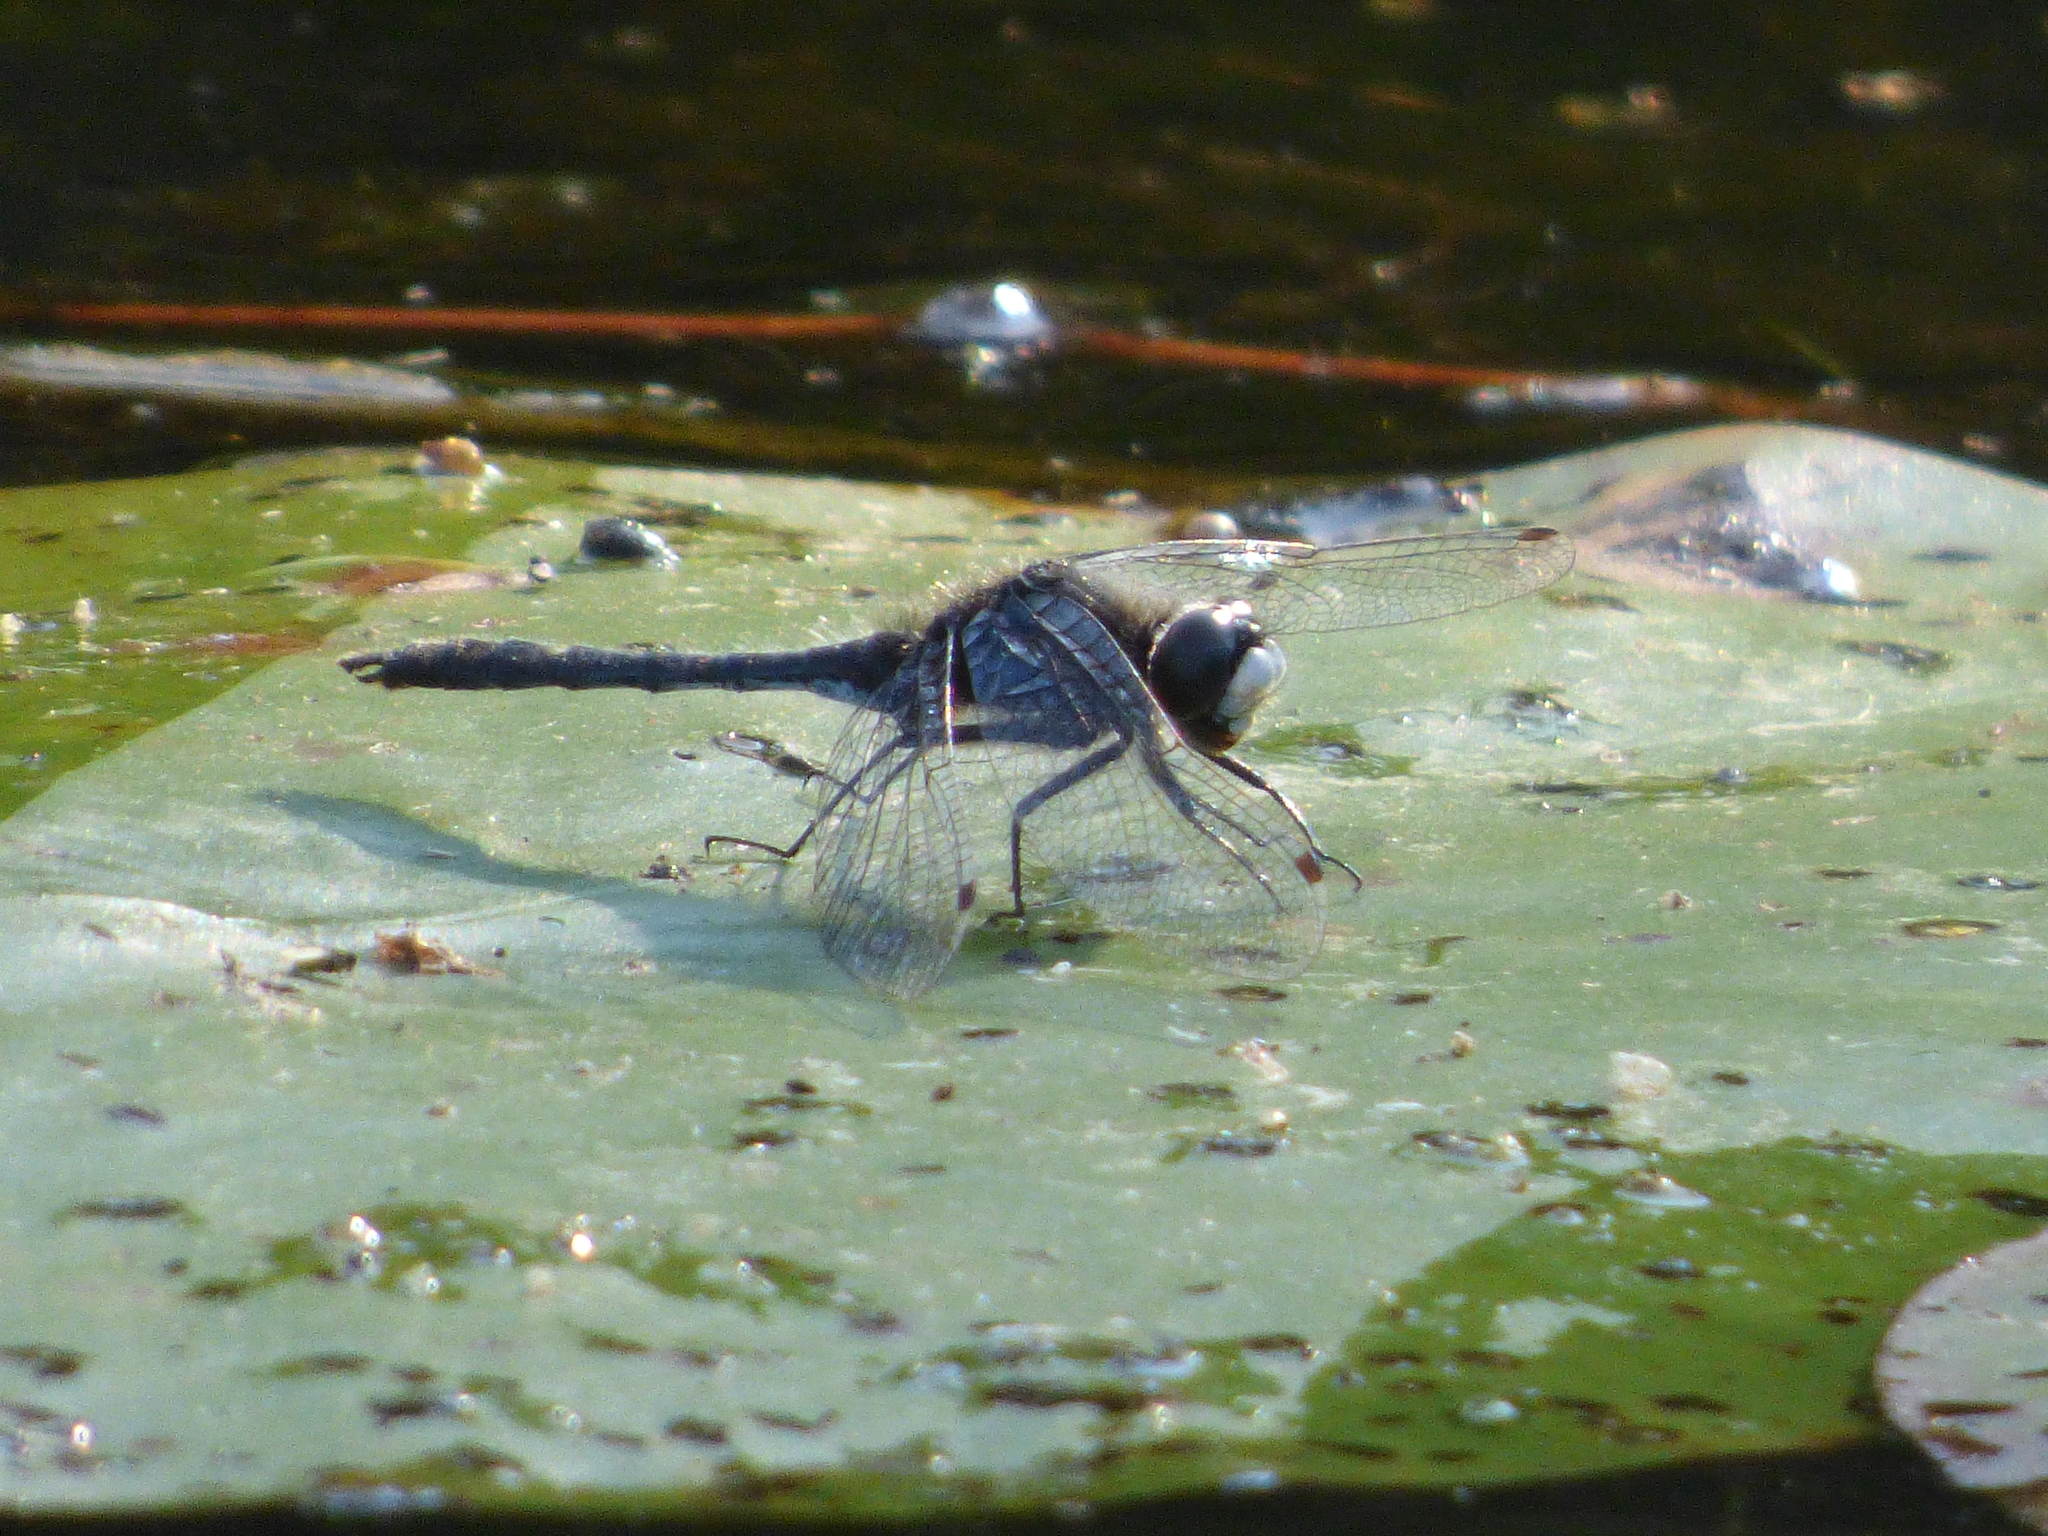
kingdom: Animalia
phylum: Arthropoda
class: Insecta
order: Odonata
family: Libellulidae
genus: Leucorrhinia
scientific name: Leucorrhinia intacta
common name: Dot-tailed whiteface
